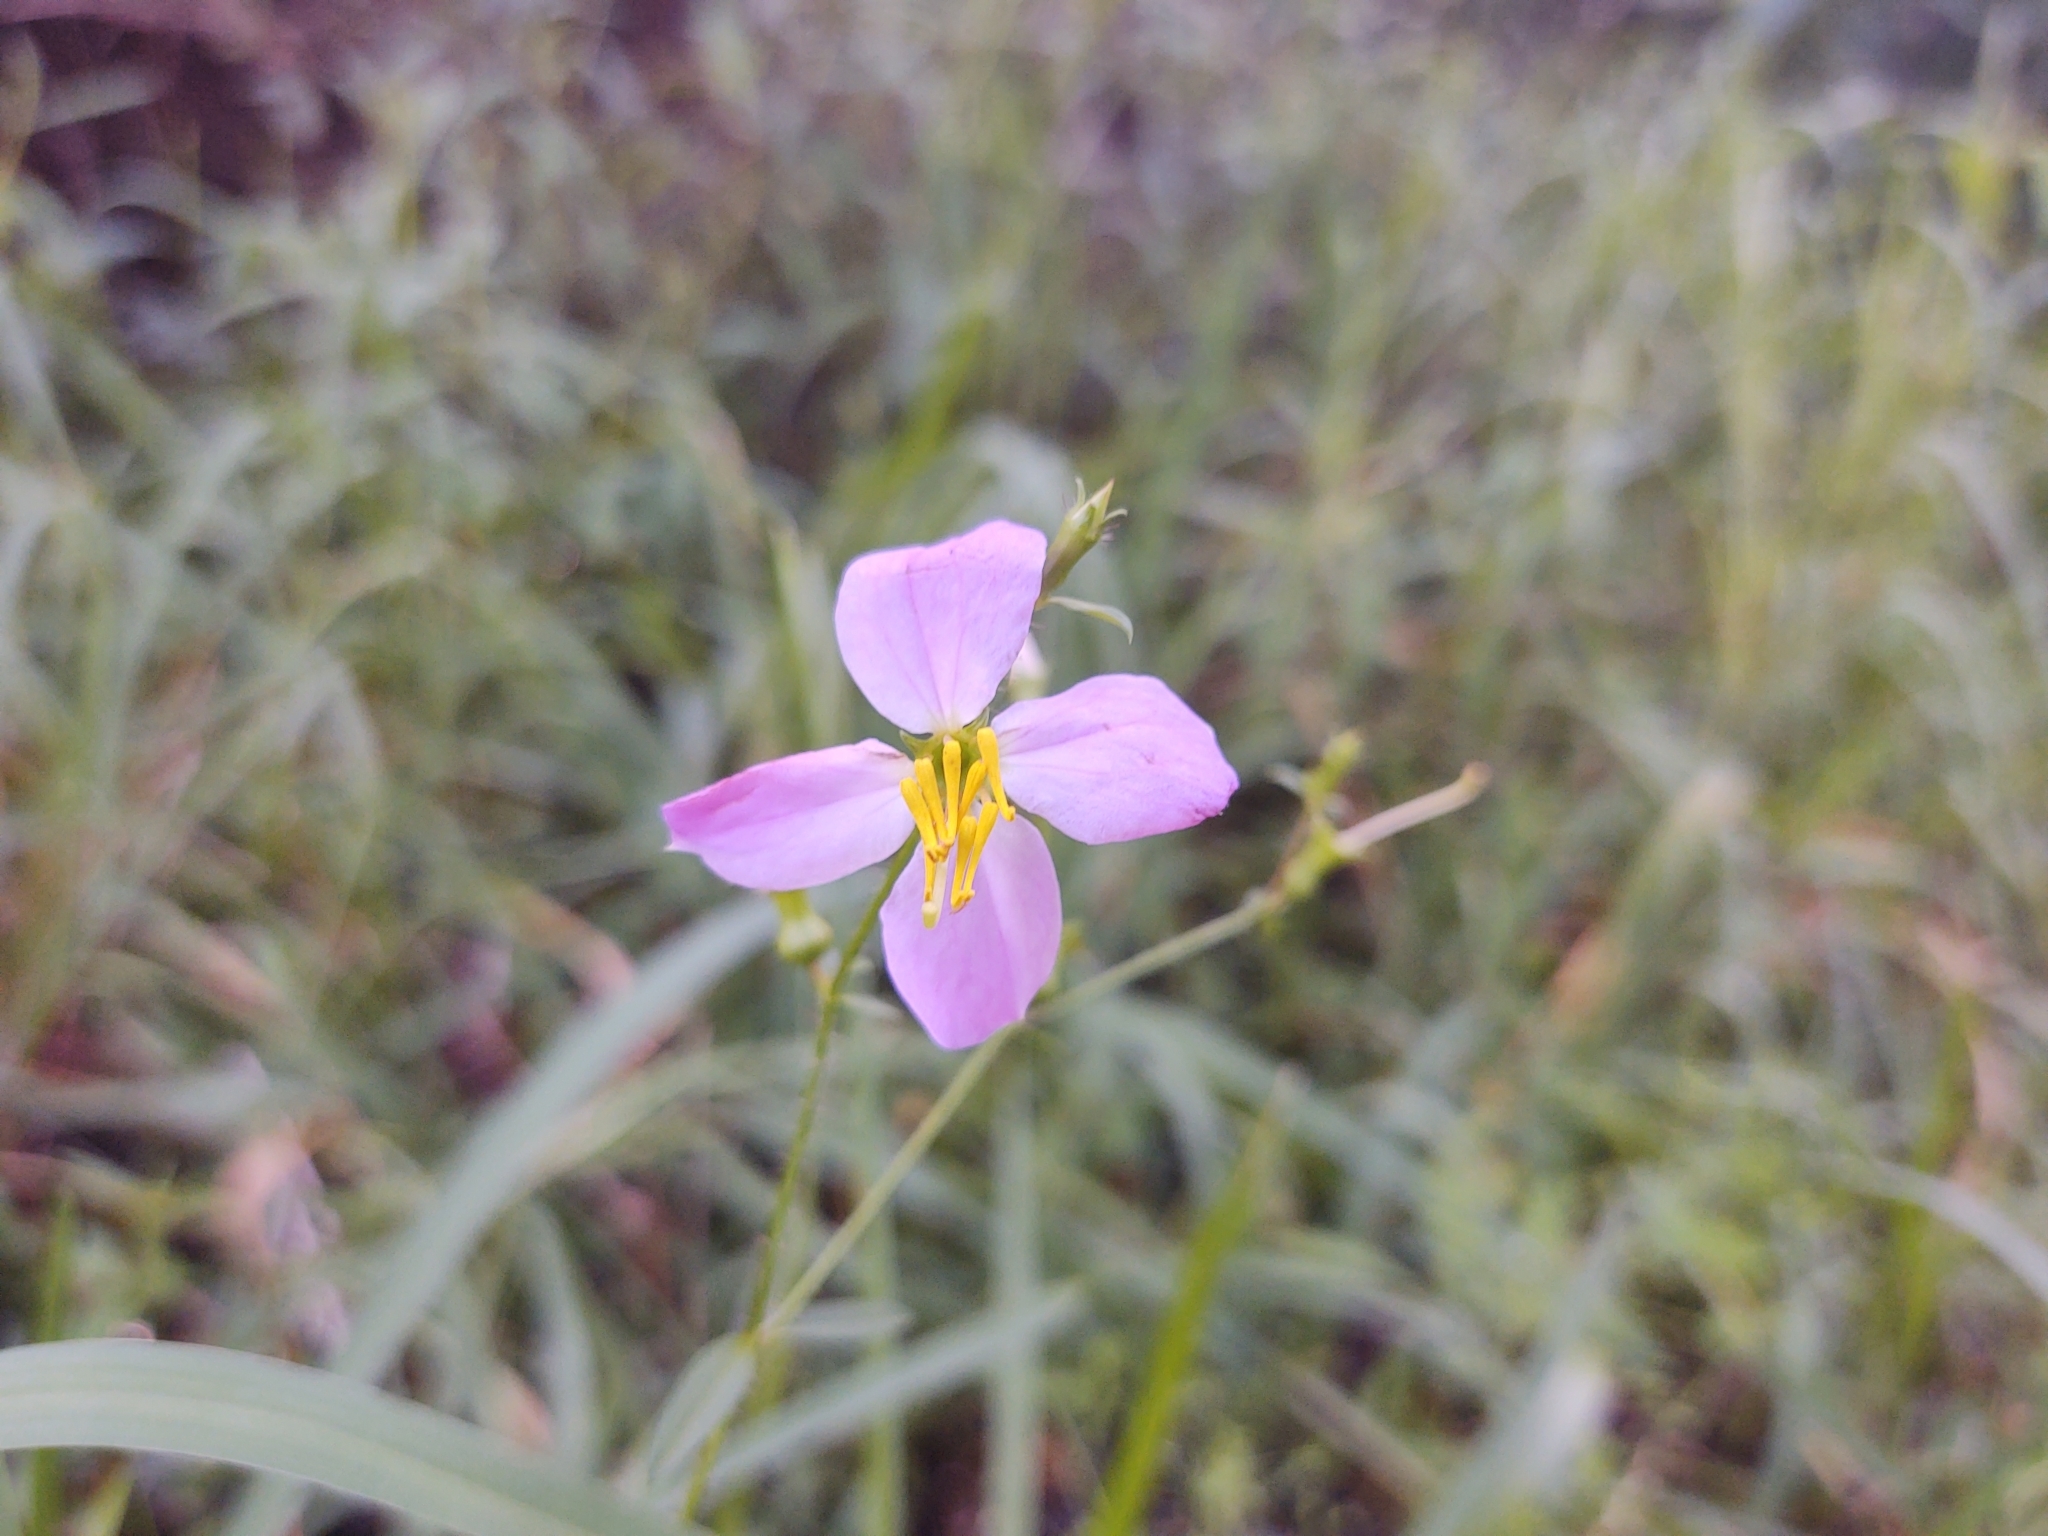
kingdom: Plantae
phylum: Tracheophyta
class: Magnoliopsida
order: Myrtales
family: Melastomataceae
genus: Rhexia
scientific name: Rhexia mariana
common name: Dull meadow-pitcher
